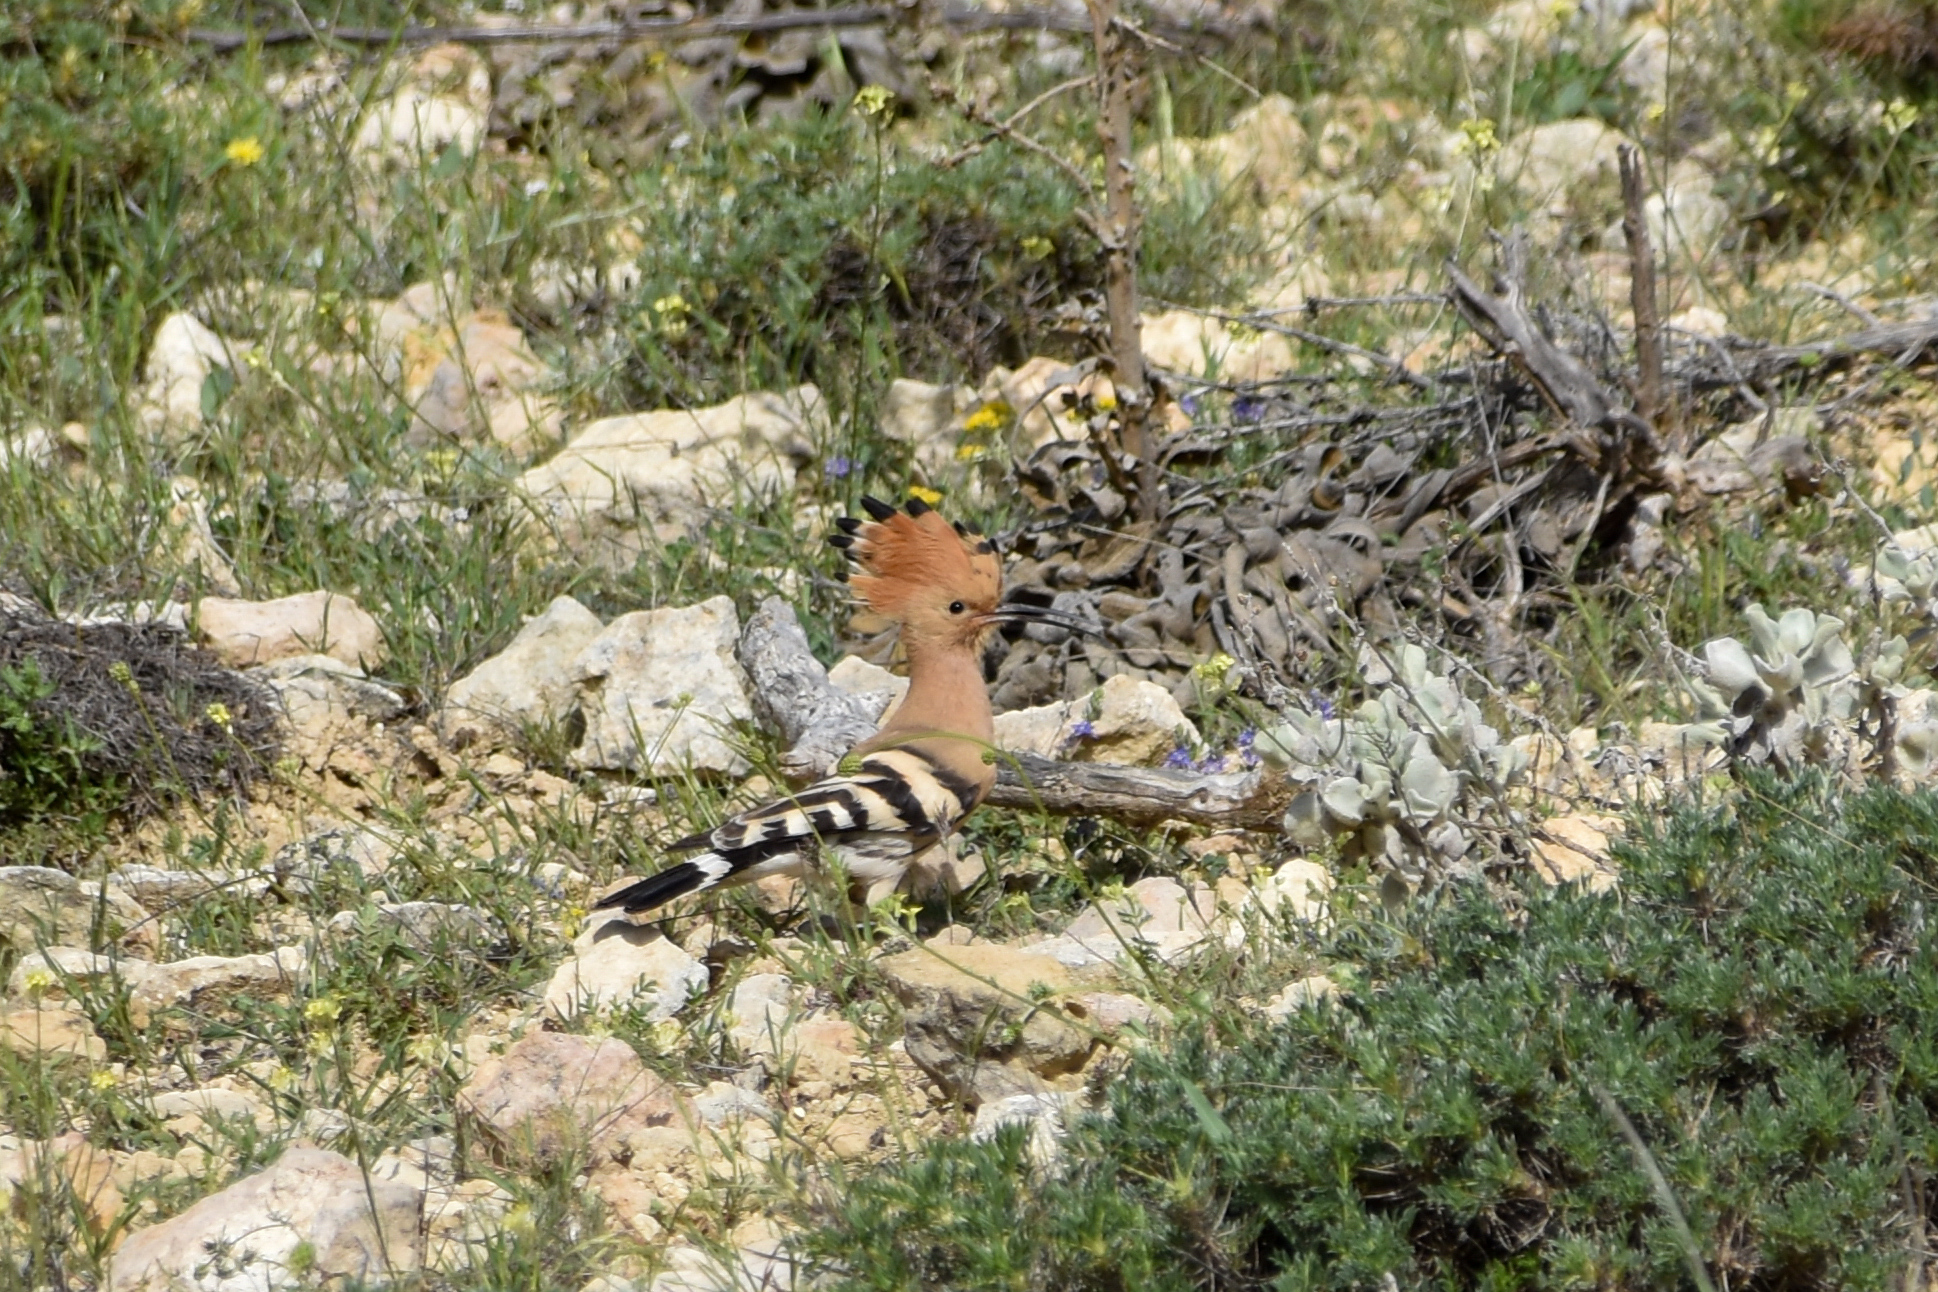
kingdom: Animalia
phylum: Chordata
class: Aves
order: Bucerotiformes
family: Upupidae
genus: Upupa
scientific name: Upupa epops
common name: Eurasian hoopoe
